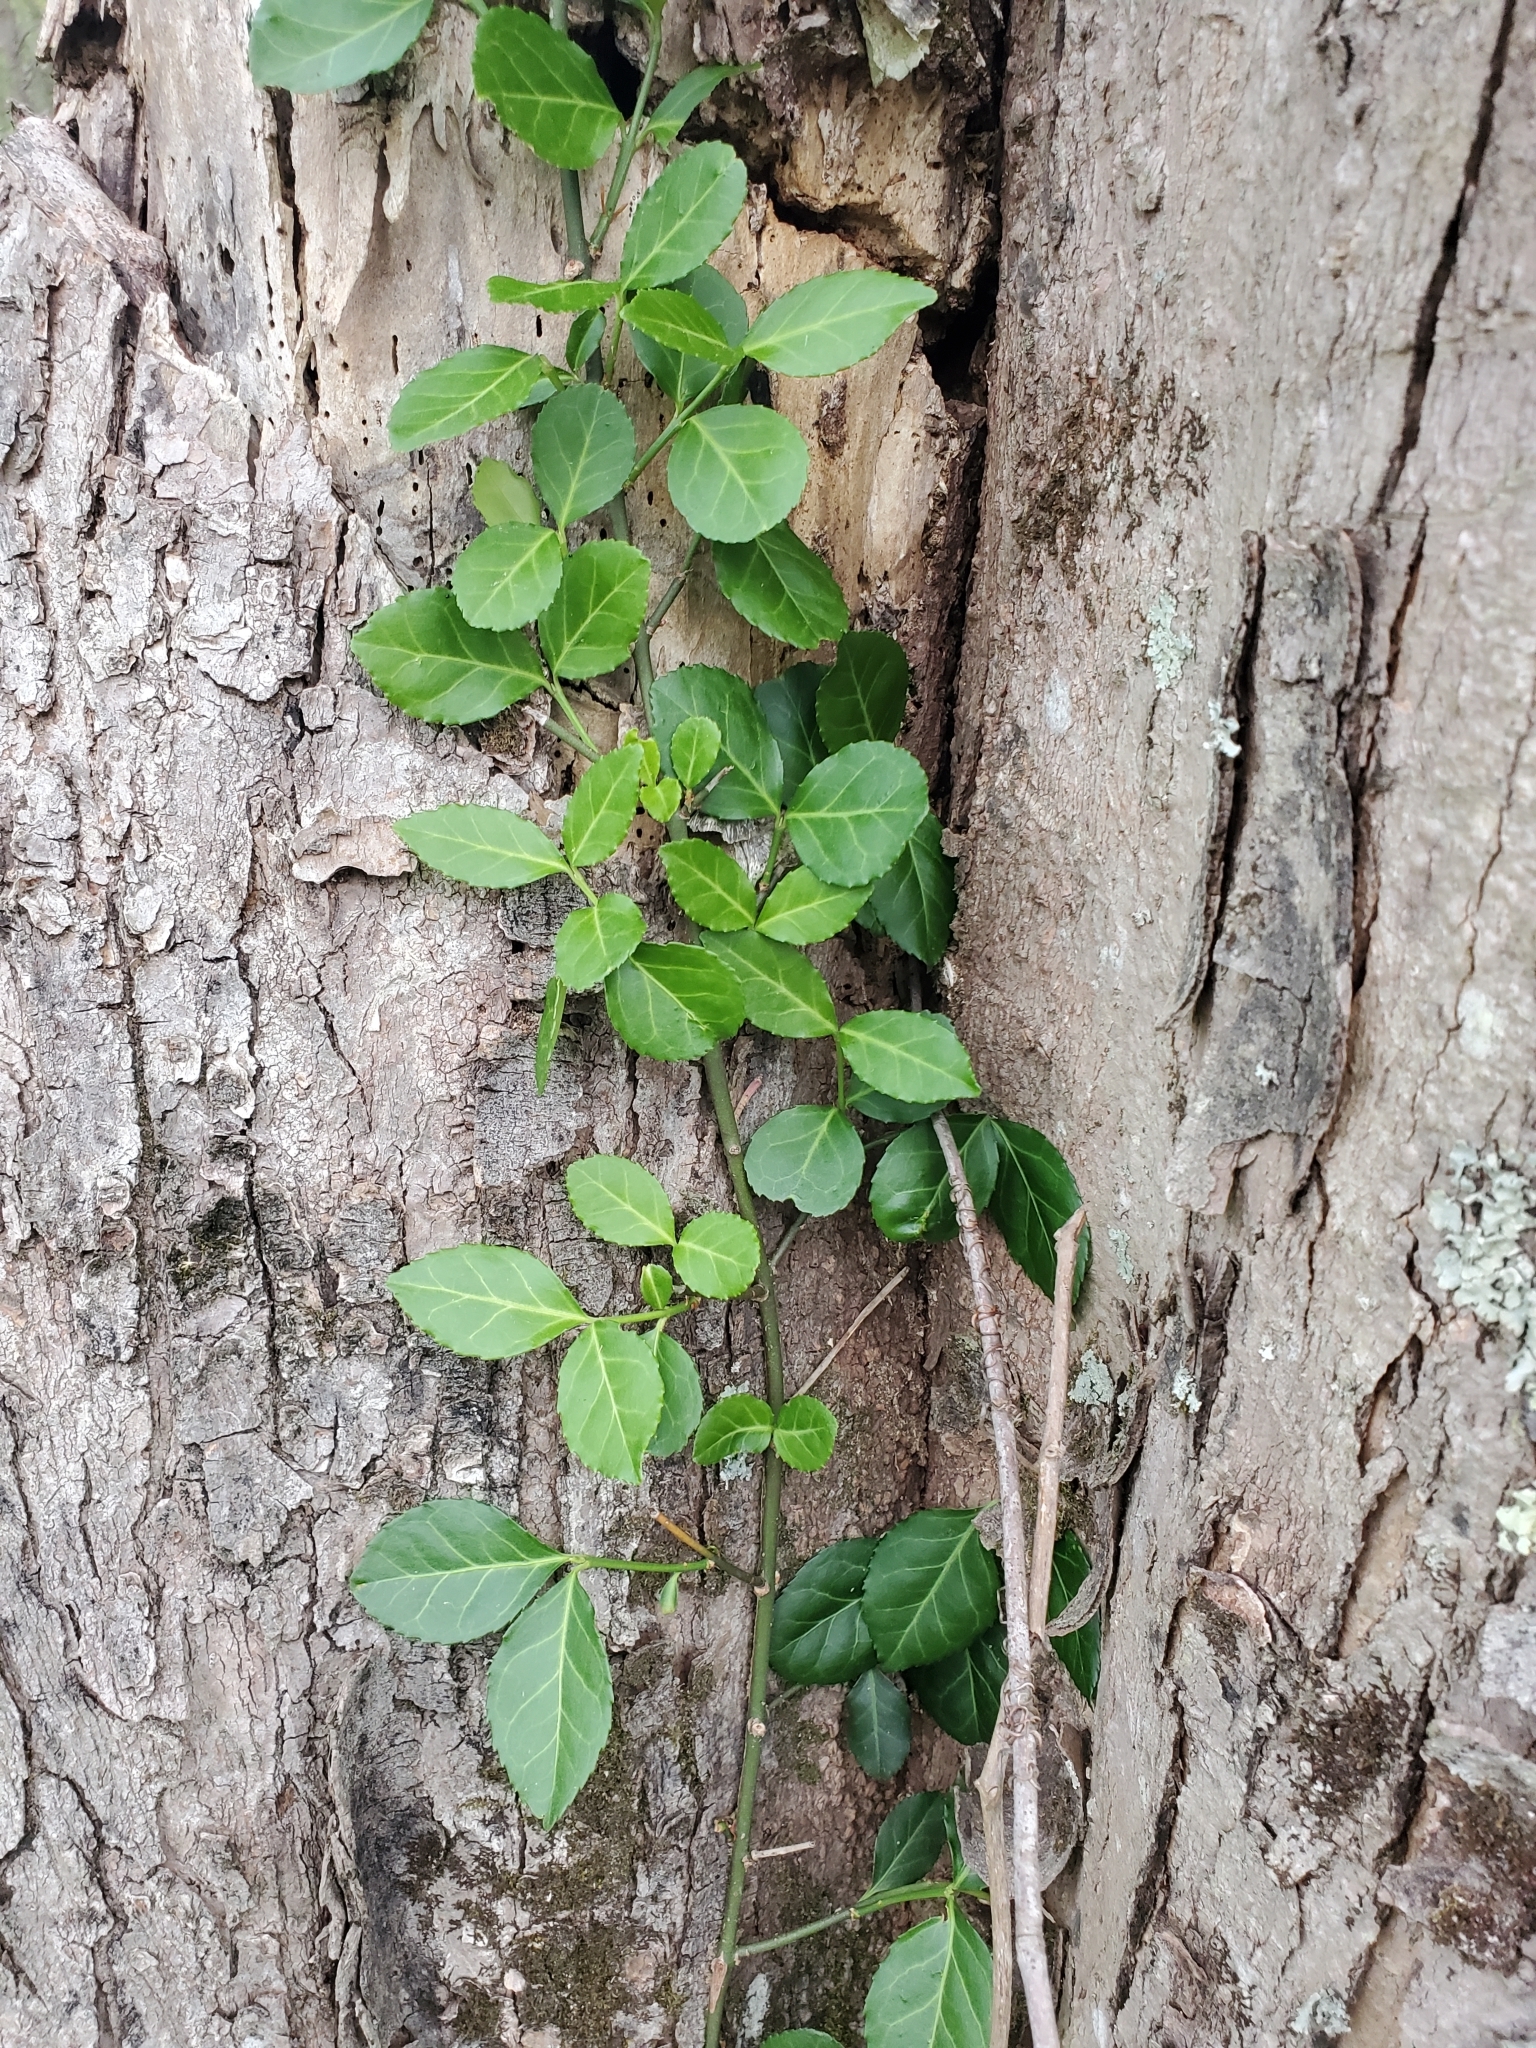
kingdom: Plantae
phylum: Tracheophyta
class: Magnoliopsida
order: Celastrales
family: Celastraceae
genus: Euonymus
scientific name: Euonymus fortunei
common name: Climbing euonymus
